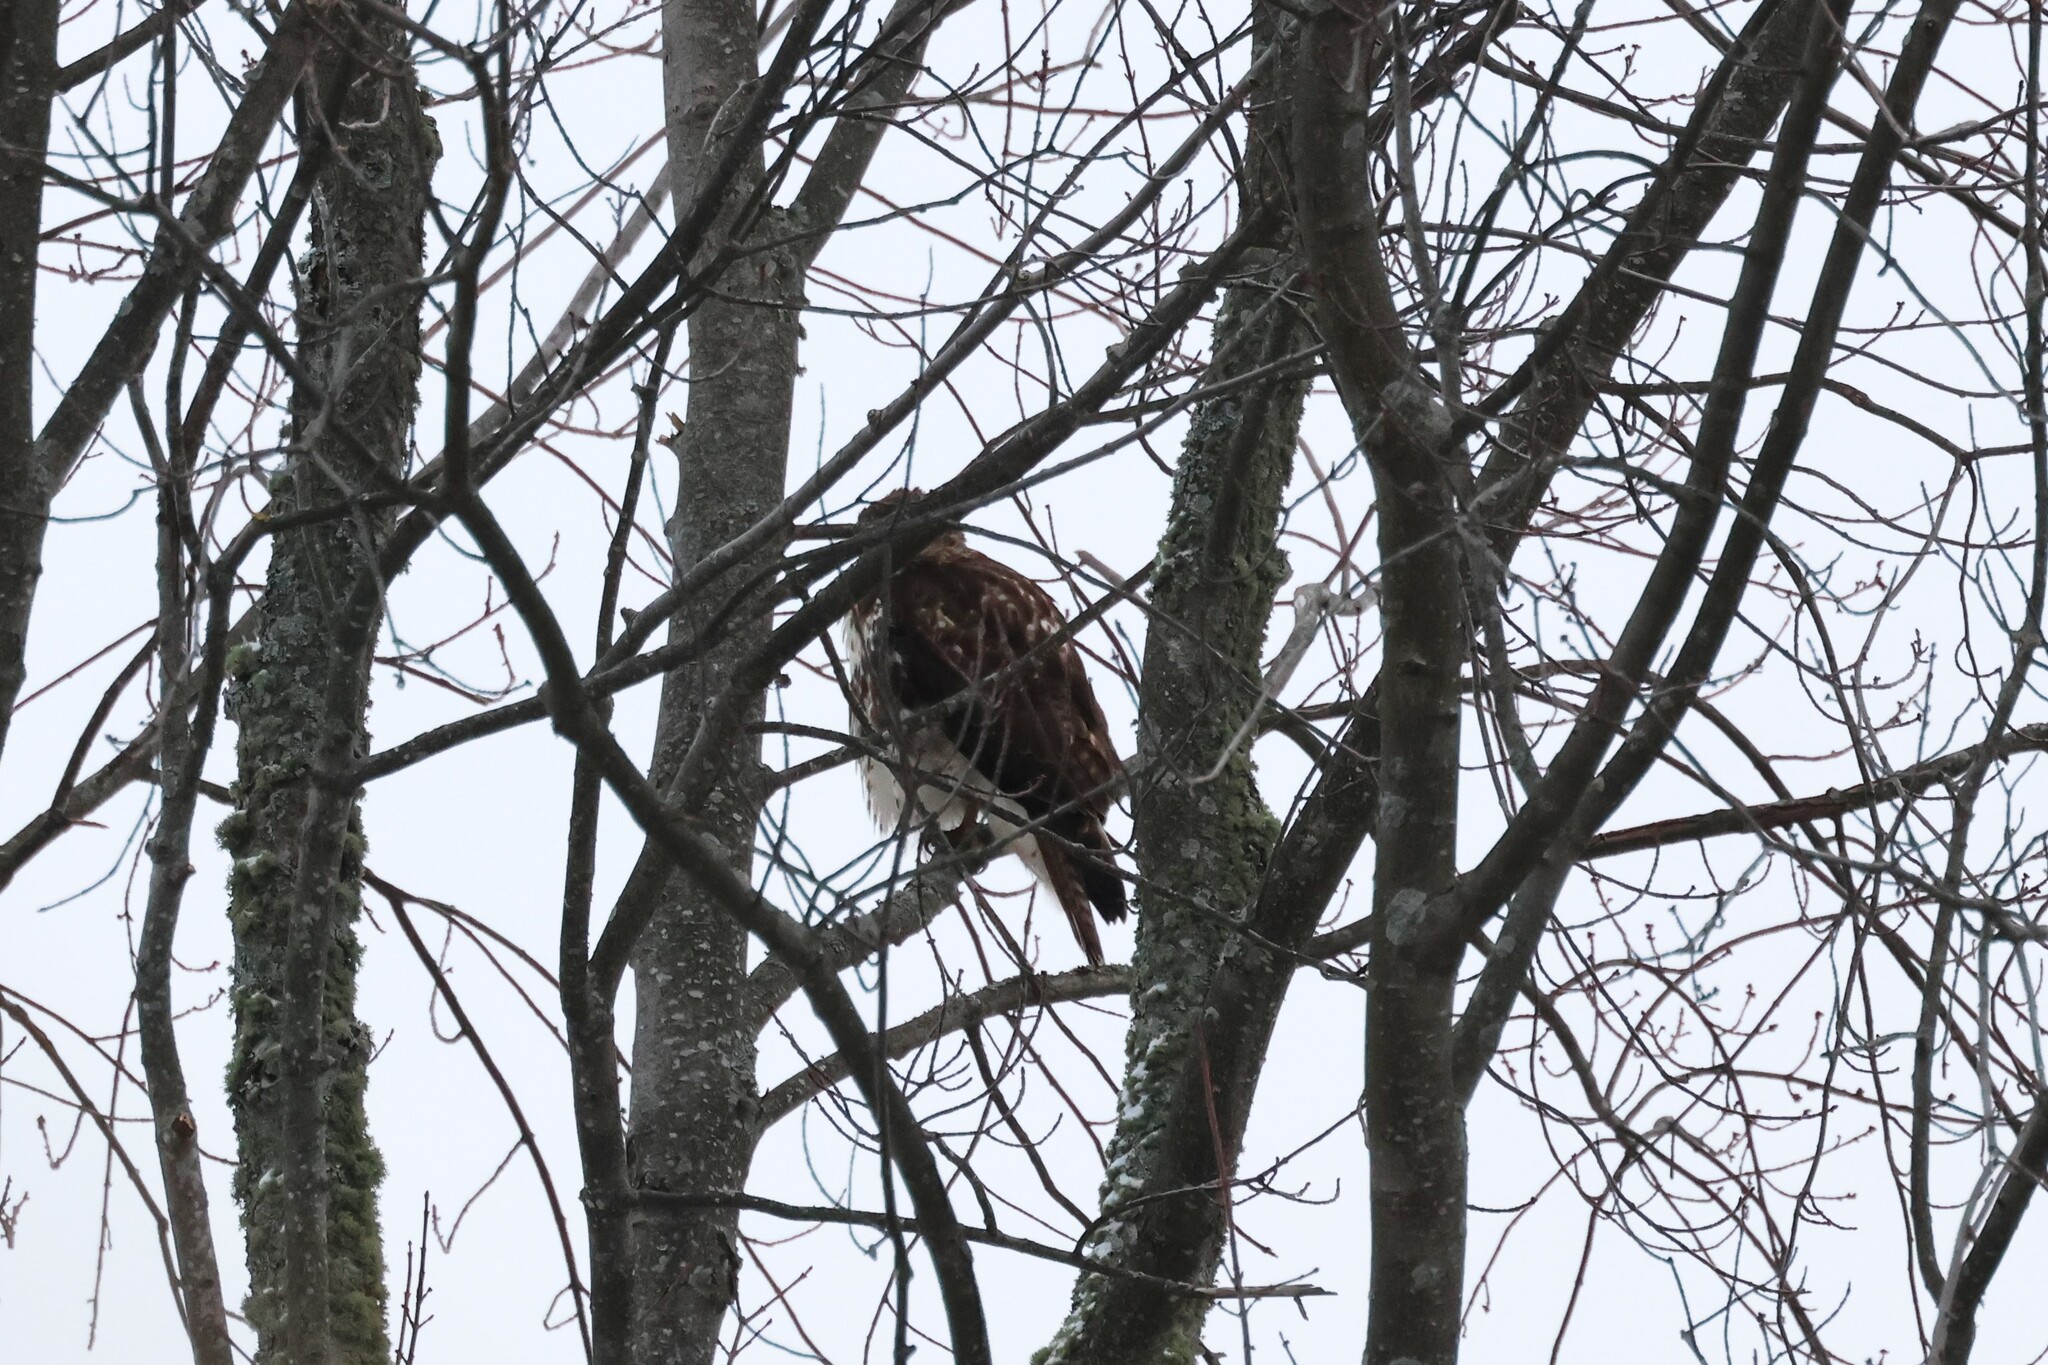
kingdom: Animalia
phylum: Chordata
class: Aves
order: Accipitriformes
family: Accipitridae
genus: Buteo
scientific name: Buteo jamaicensis
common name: Red-tailed hawk
